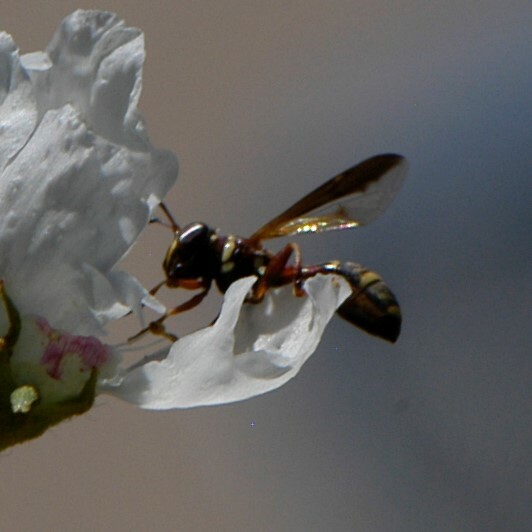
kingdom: Animalia
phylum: Arthropoda
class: Insecta
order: Diptera
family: Syrphidae
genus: Polybiomyia
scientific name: Polybiomyia townsendi
